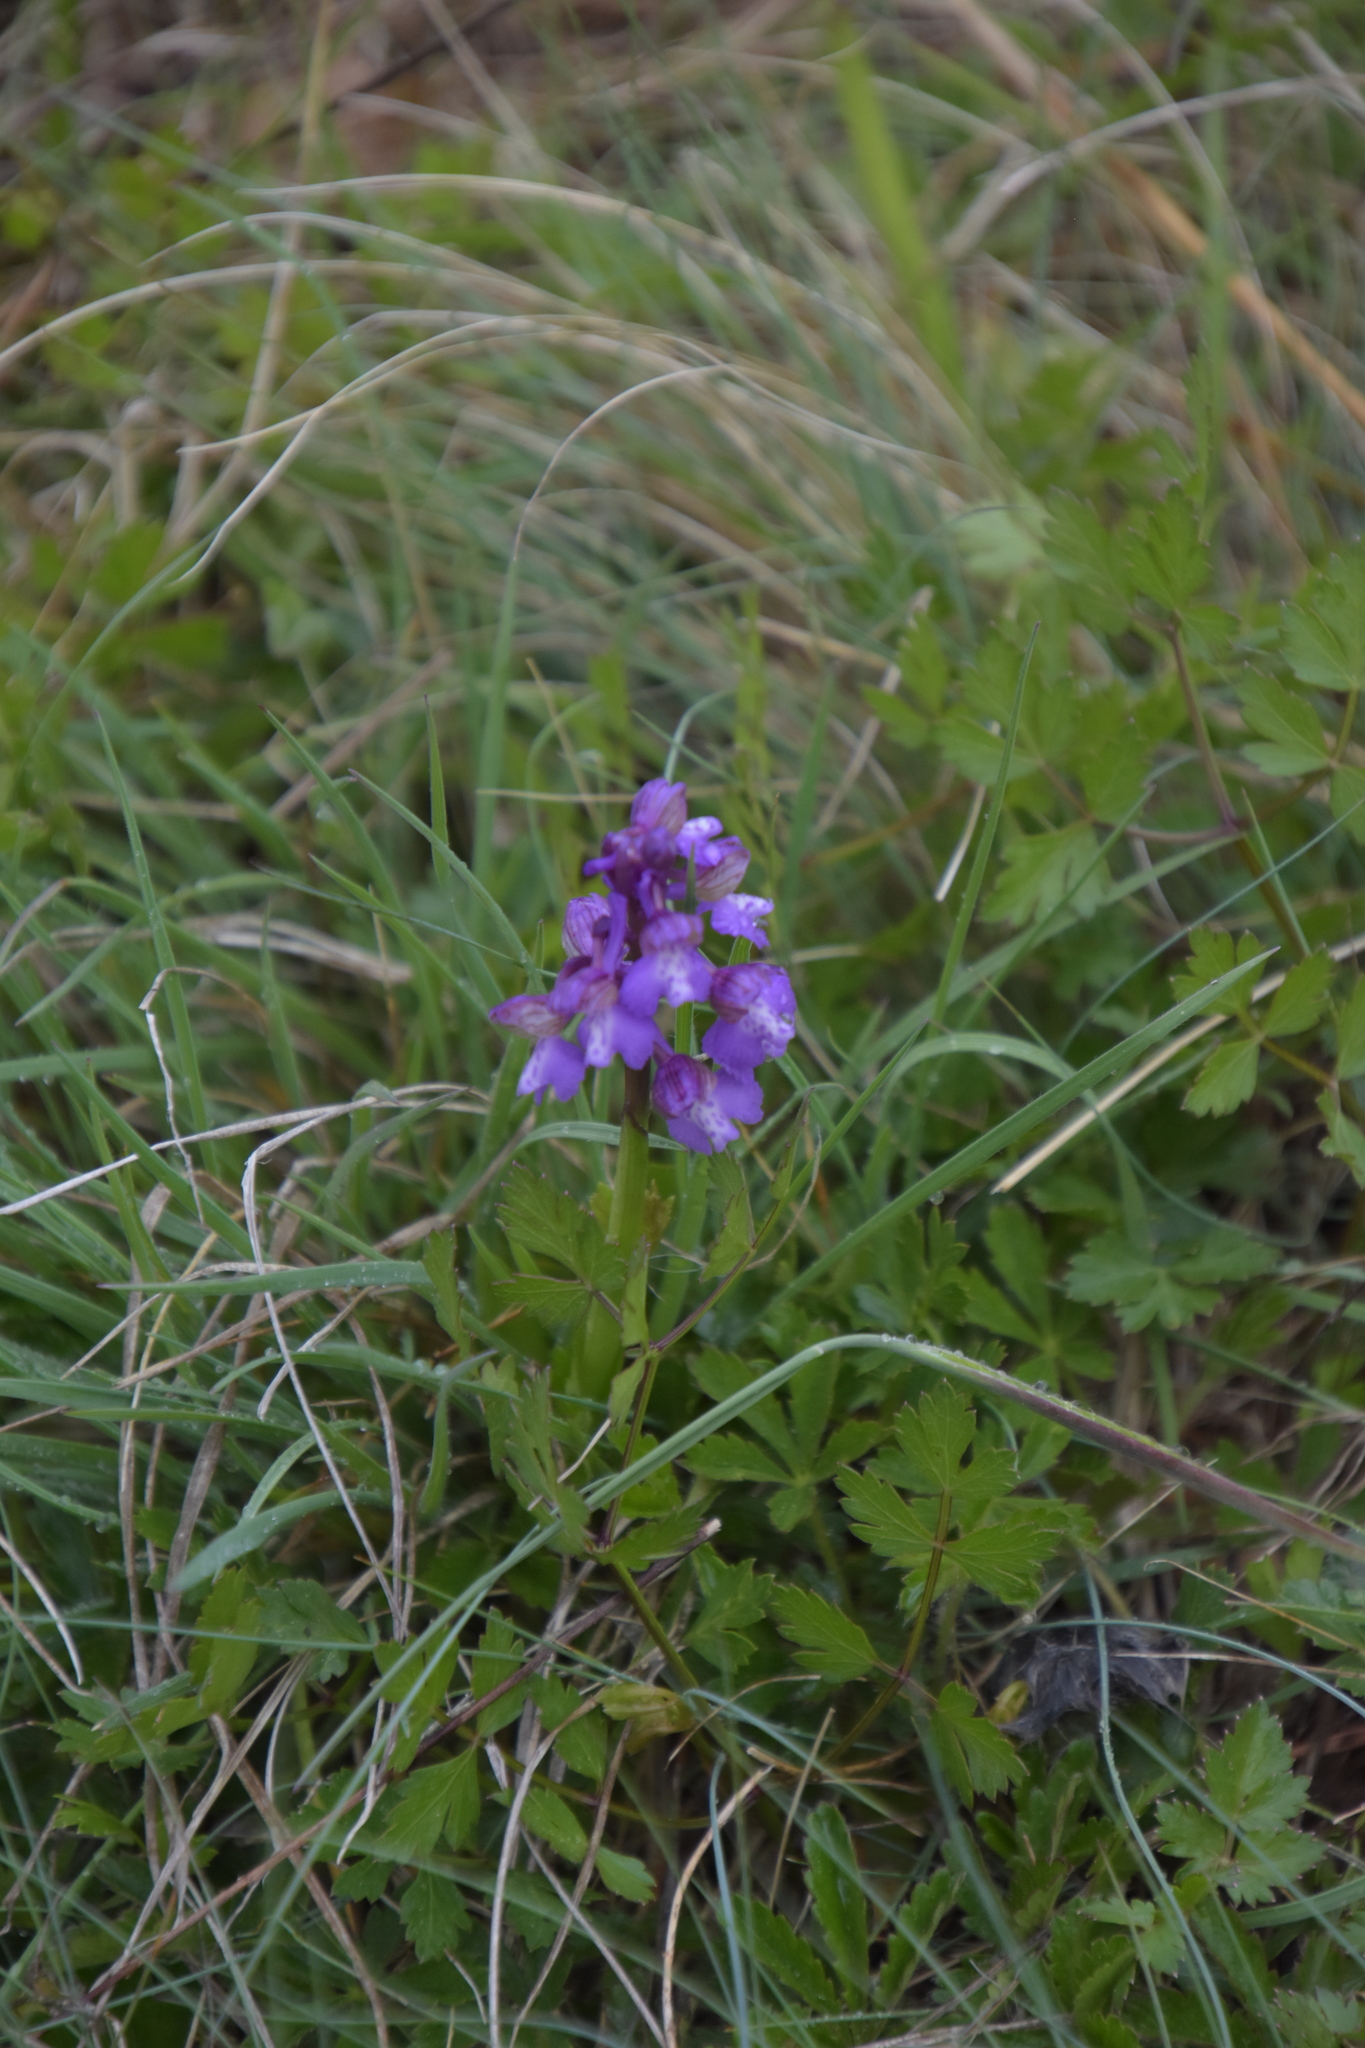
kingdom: Plantae
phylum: Tracheophyta
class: Liliopsida
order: Asparagales
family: Orchidaceae
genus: Anacamptis
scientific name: Anacamptis morio
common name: Green-winged orchid
